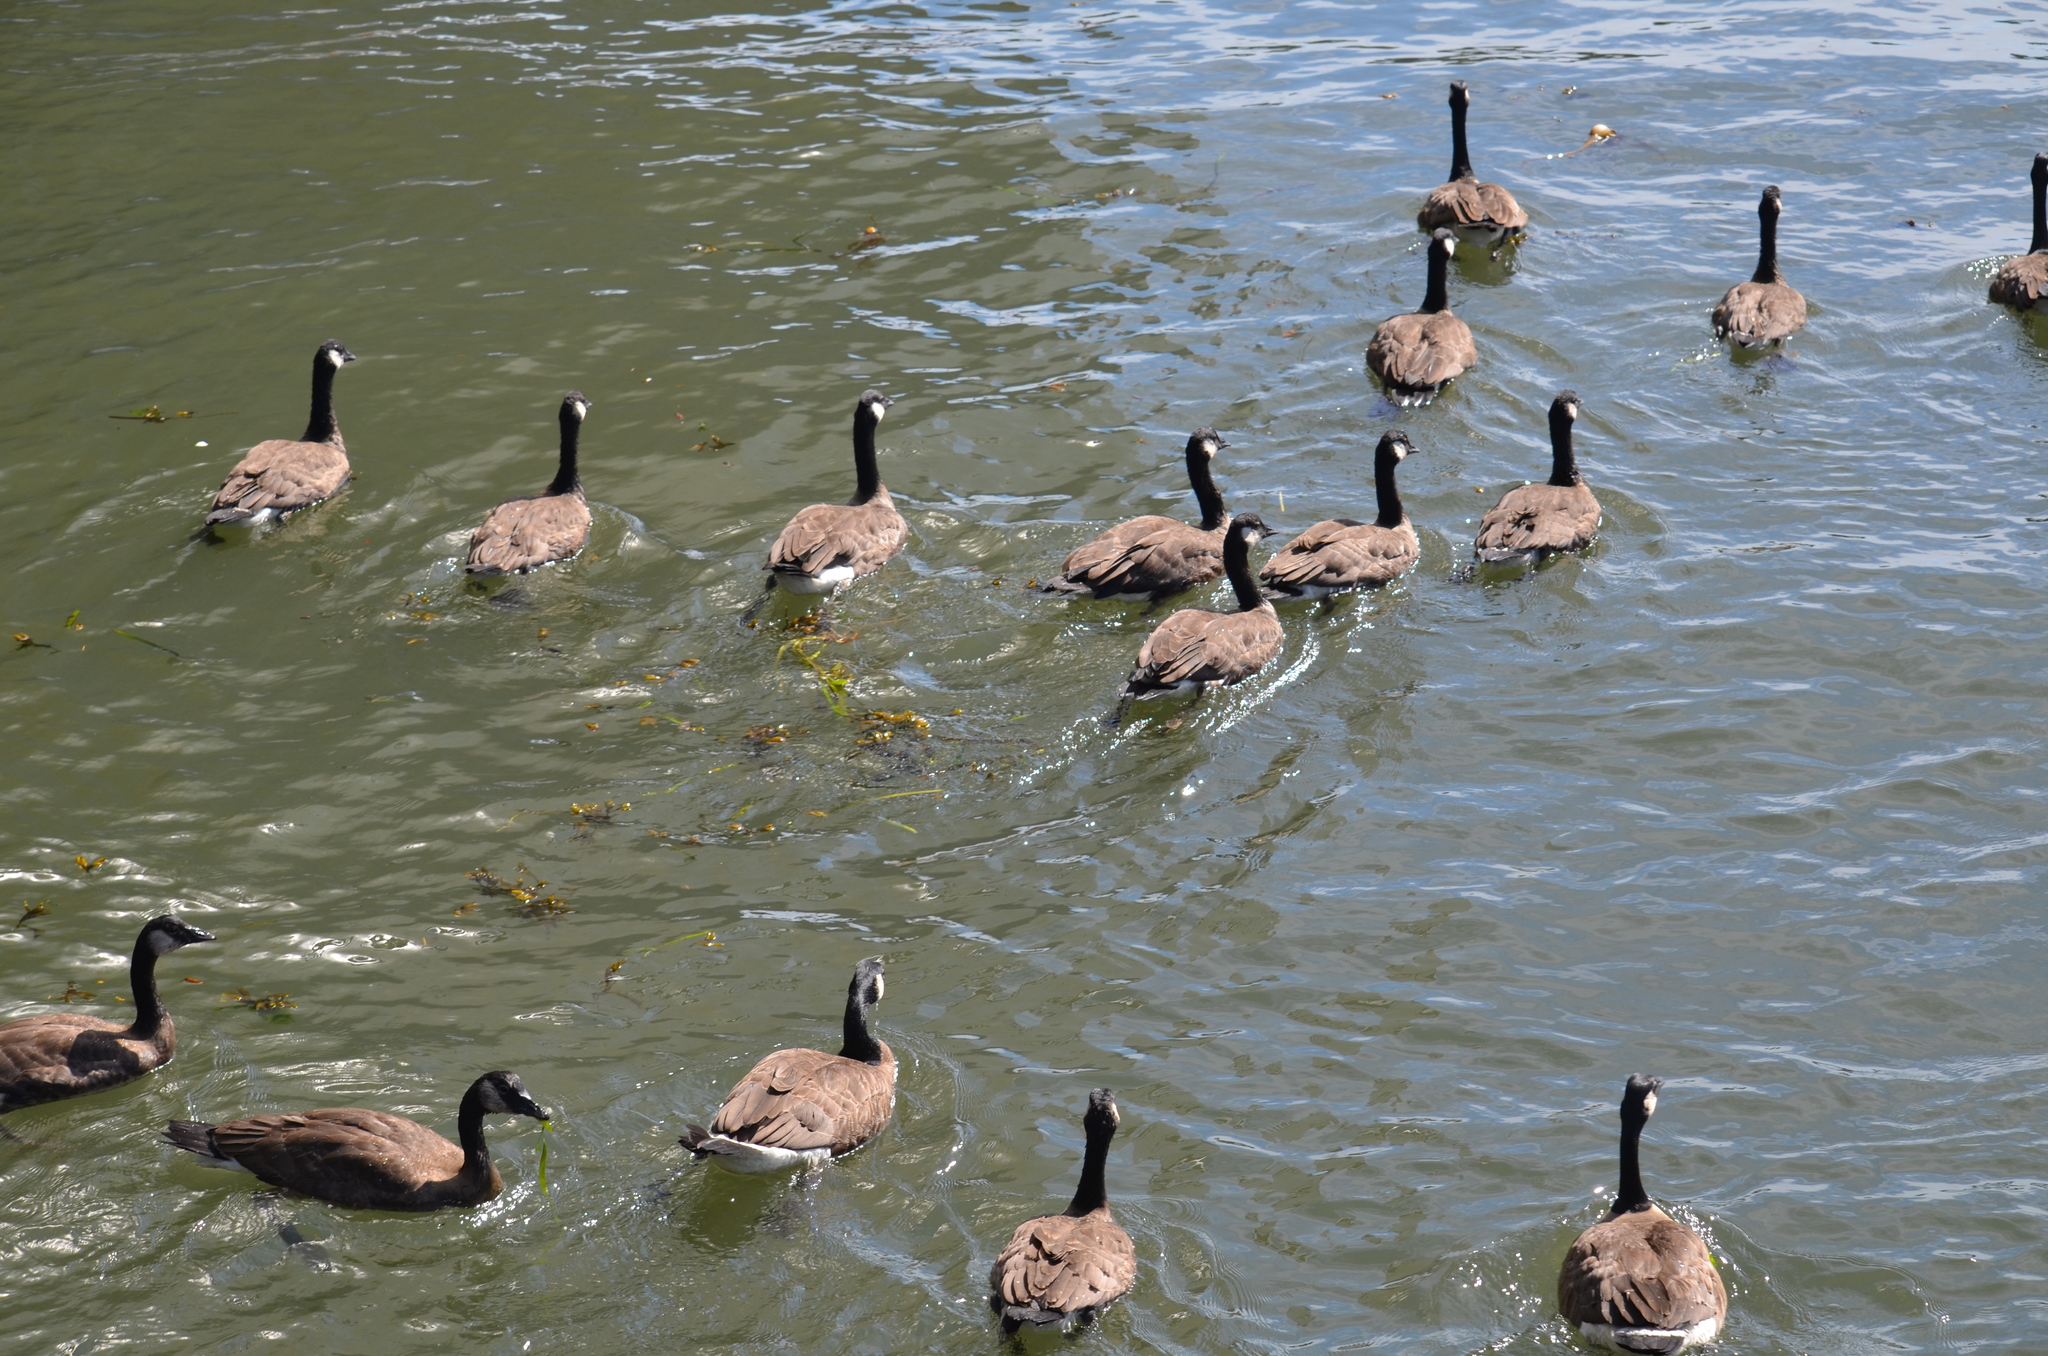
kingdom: Animalia
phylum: Chordata
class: Aves
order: Anseriformes
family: Anatidae
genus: Branta
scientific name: Branta canadensis
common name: Canada goose
